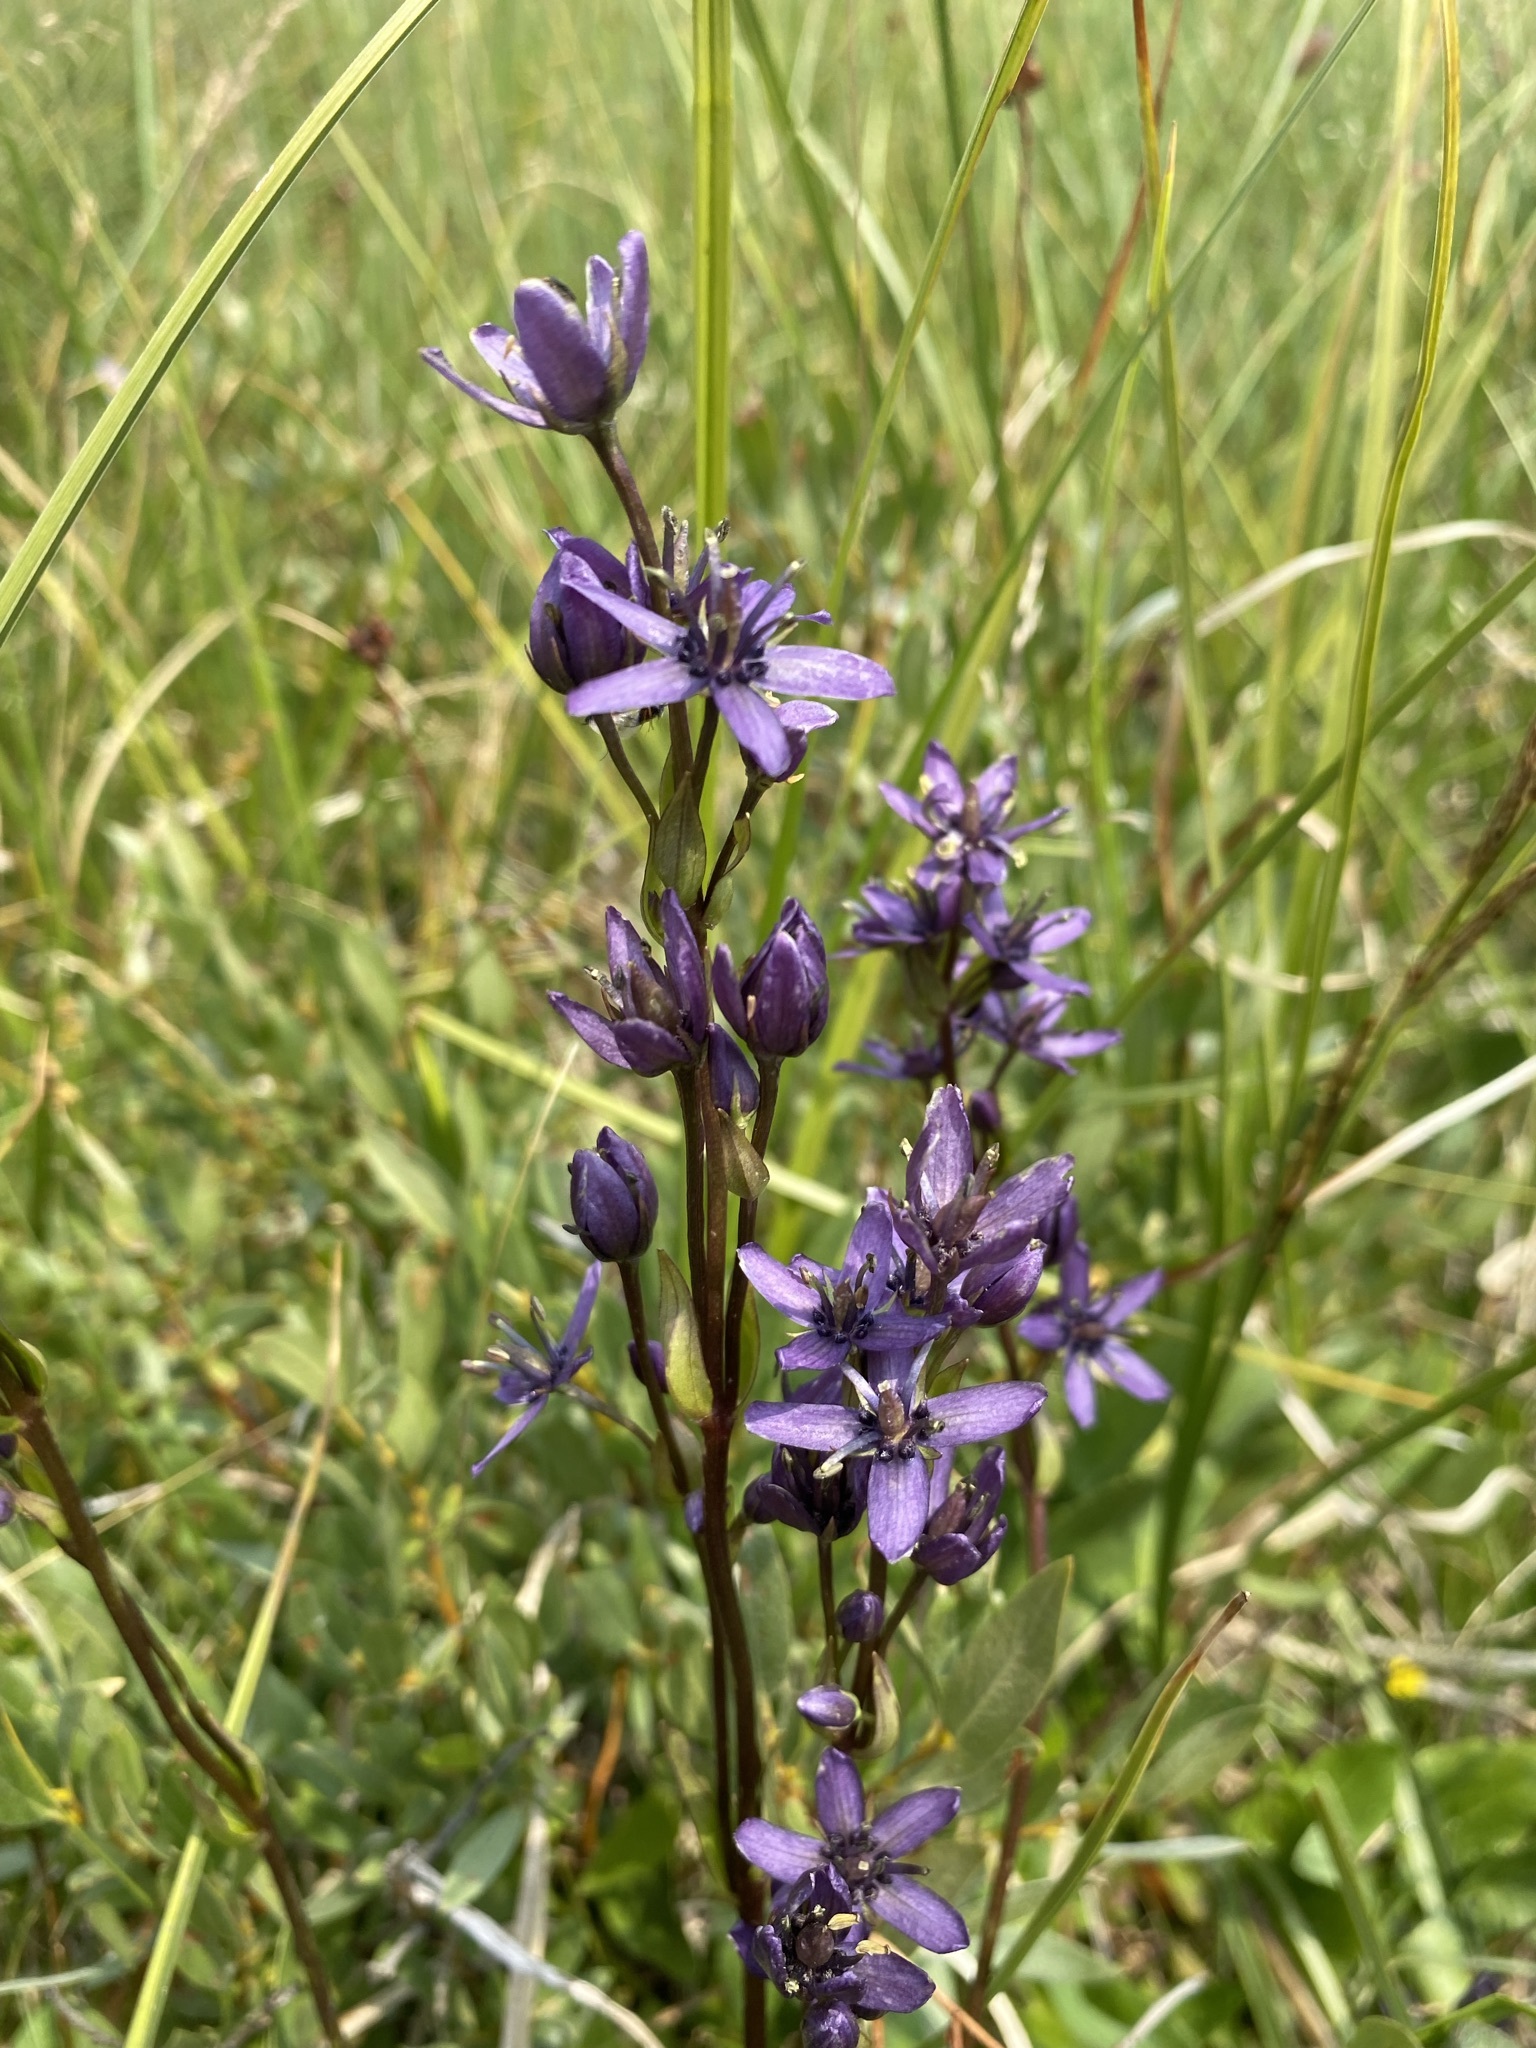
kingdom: Plantae
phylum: Tracheophyta
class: Magnoliopsida
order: Gentianales
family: Gentianaceae
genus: Swertia
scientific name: Swertia perennis
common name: Alpine bog swertia
